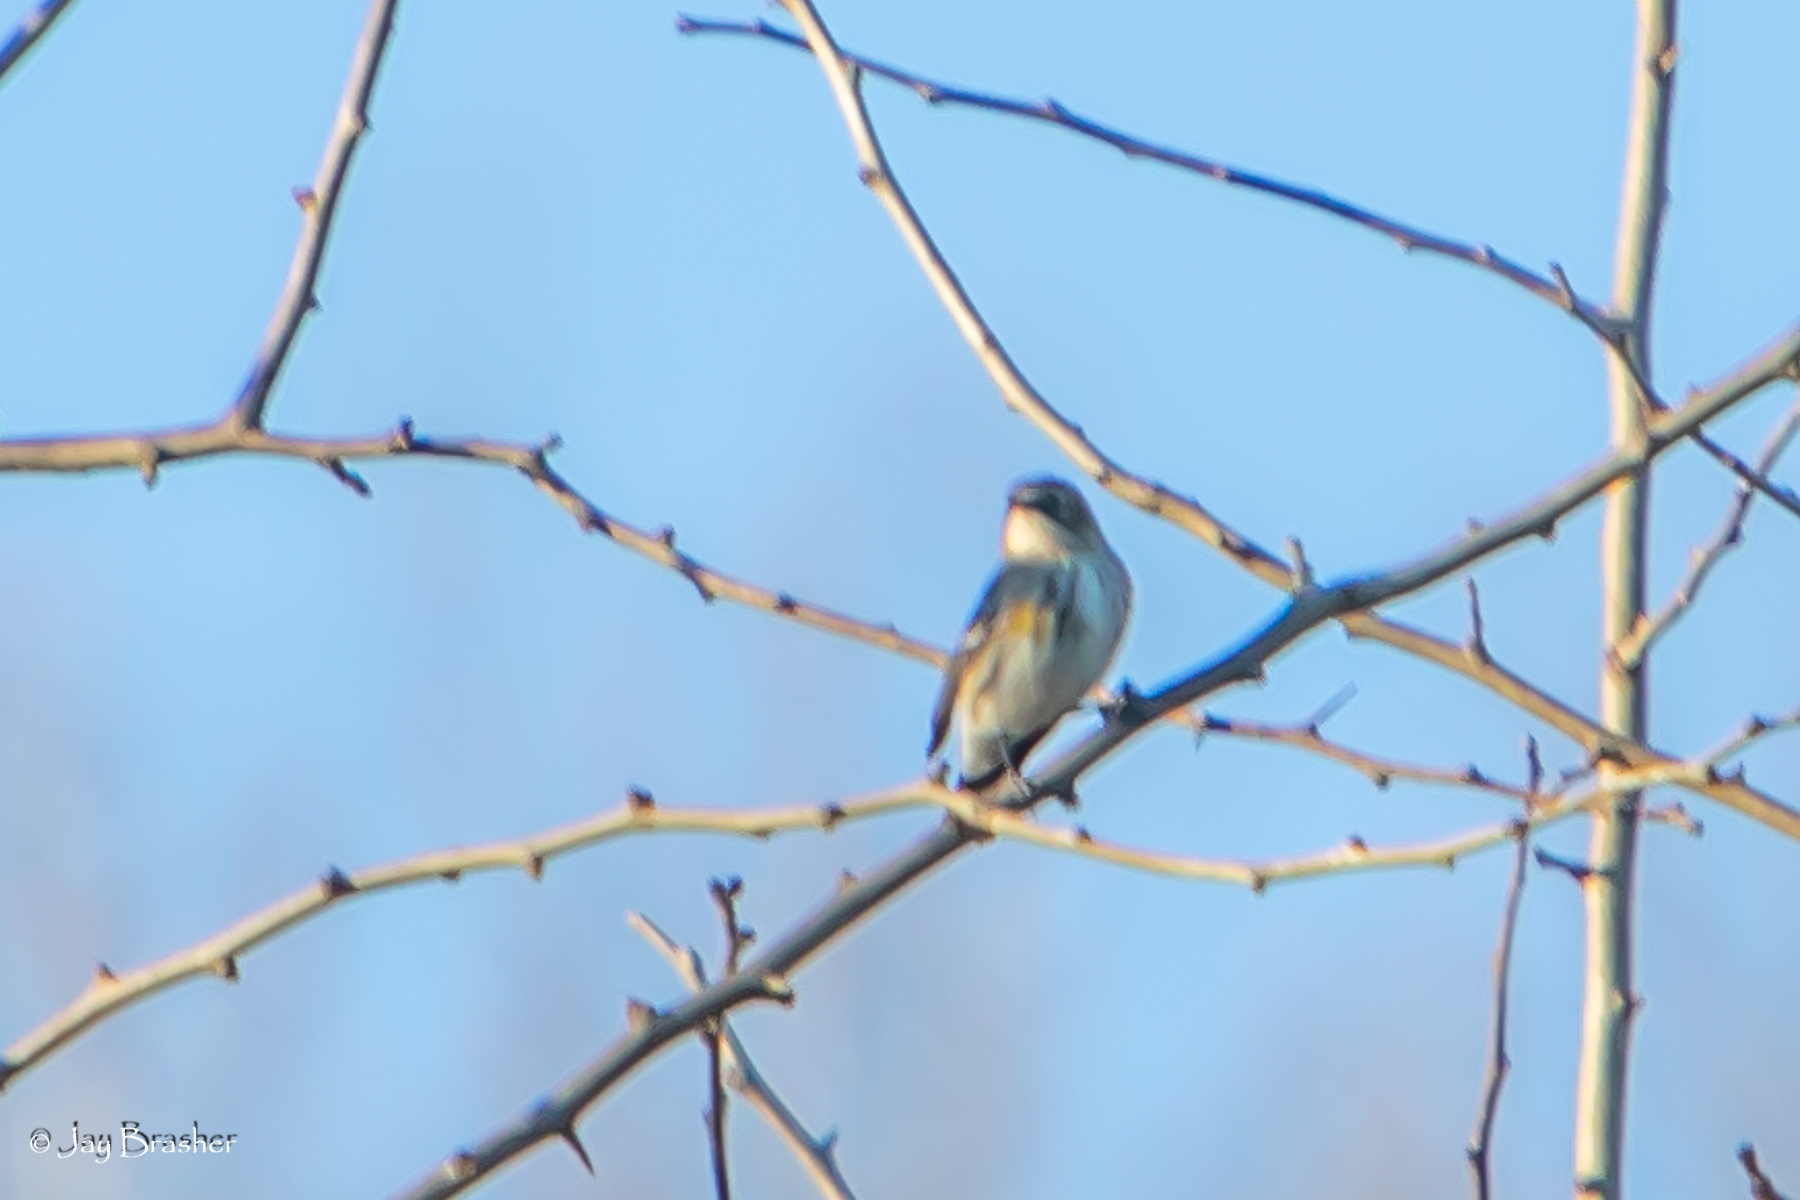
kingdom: Animalia
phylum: Chordata
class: Aves
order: Passeriformes
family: Parulidae
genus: Setophaga
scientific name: Setophaga coronata
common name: Myrtle warbler
